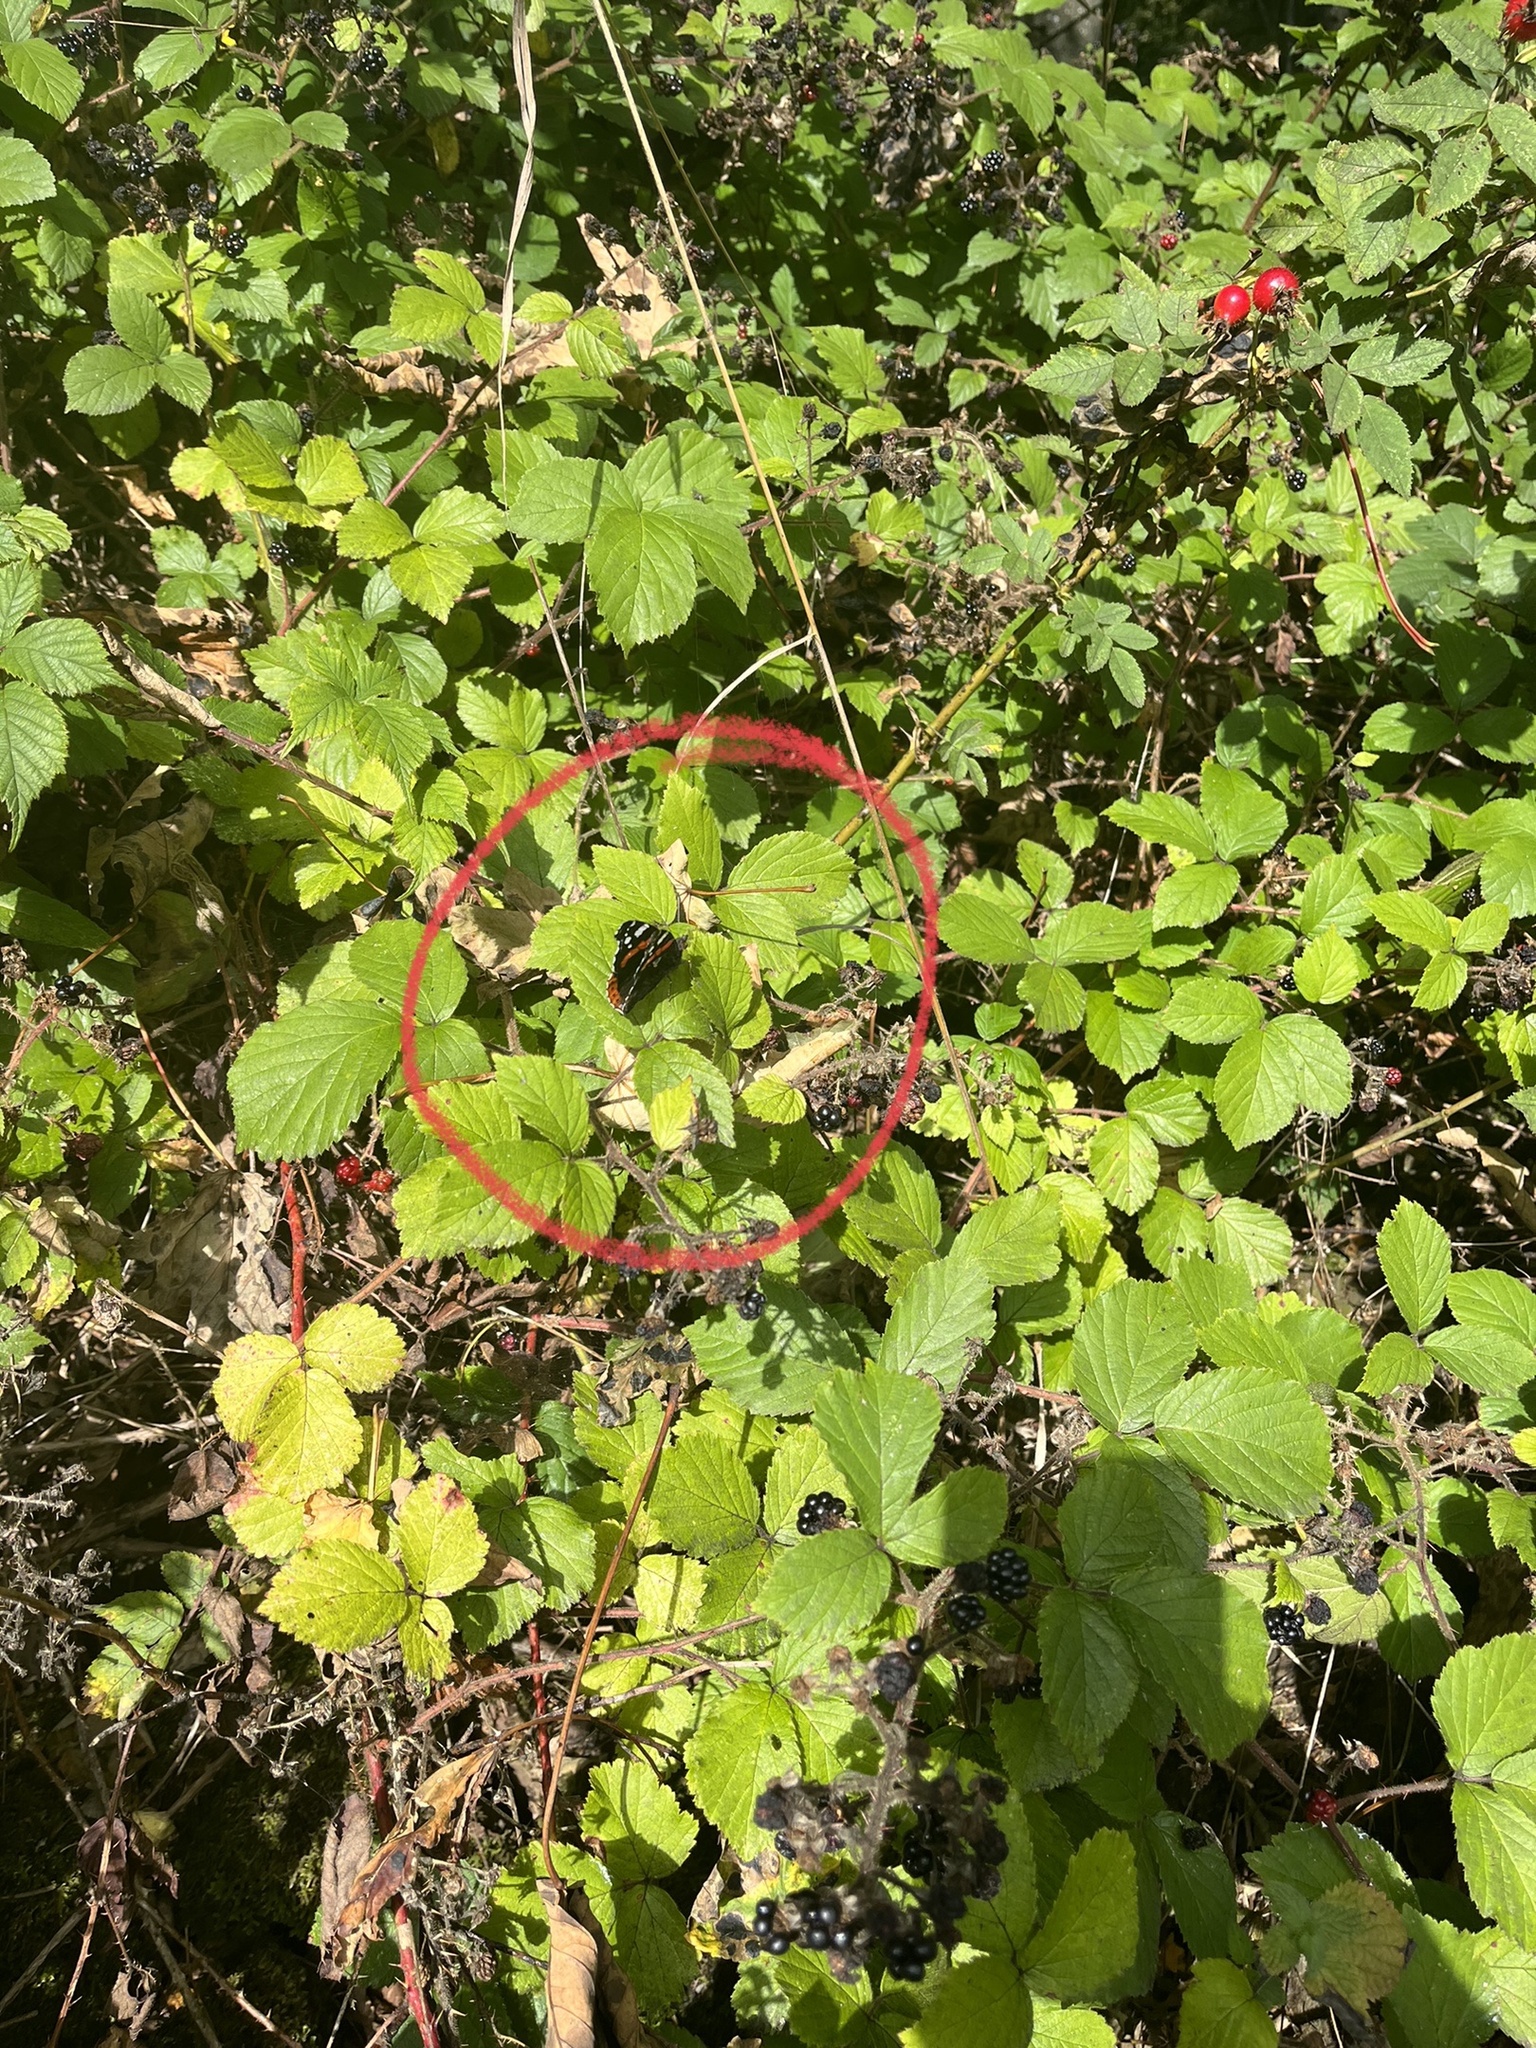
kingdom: Animalia
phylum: Arthropoda
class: Insecta
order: Lepidoptera
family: Nymphalidae
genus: Vanessa
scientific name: Vanessa atalanta
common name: Red admiral
